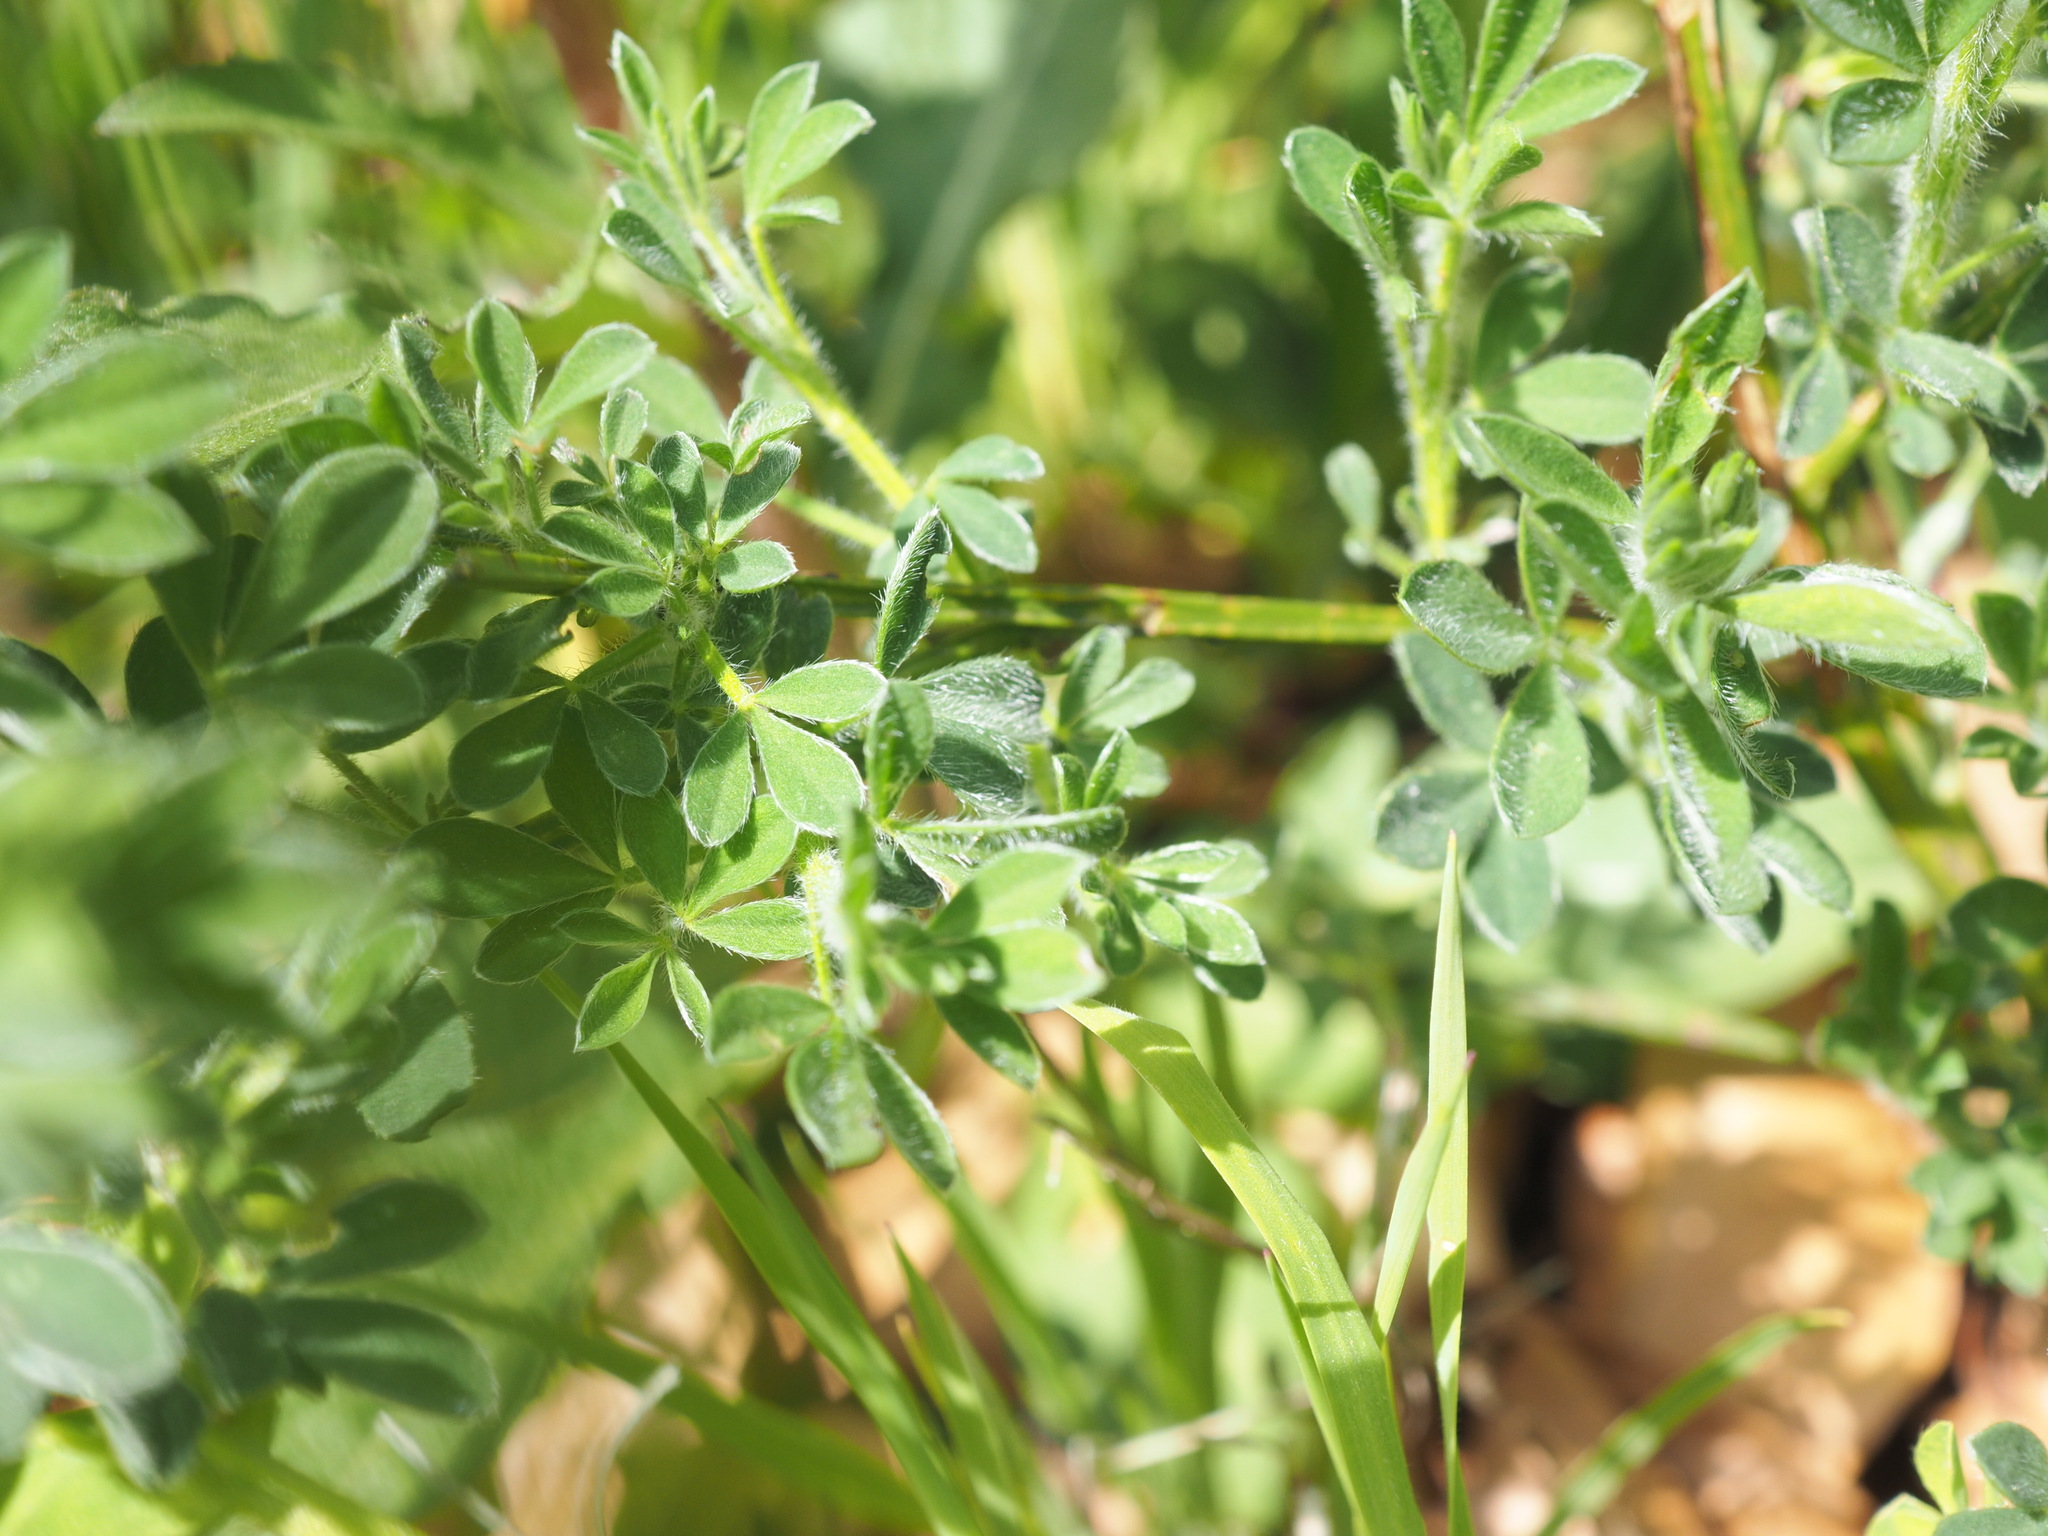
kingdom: Plantae
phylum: Tracheophyta
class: Magnoliopsida
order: Fabales
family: Fabaceae
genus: Cytisus
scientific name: Cytisus scoparius
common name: Scotch broom
